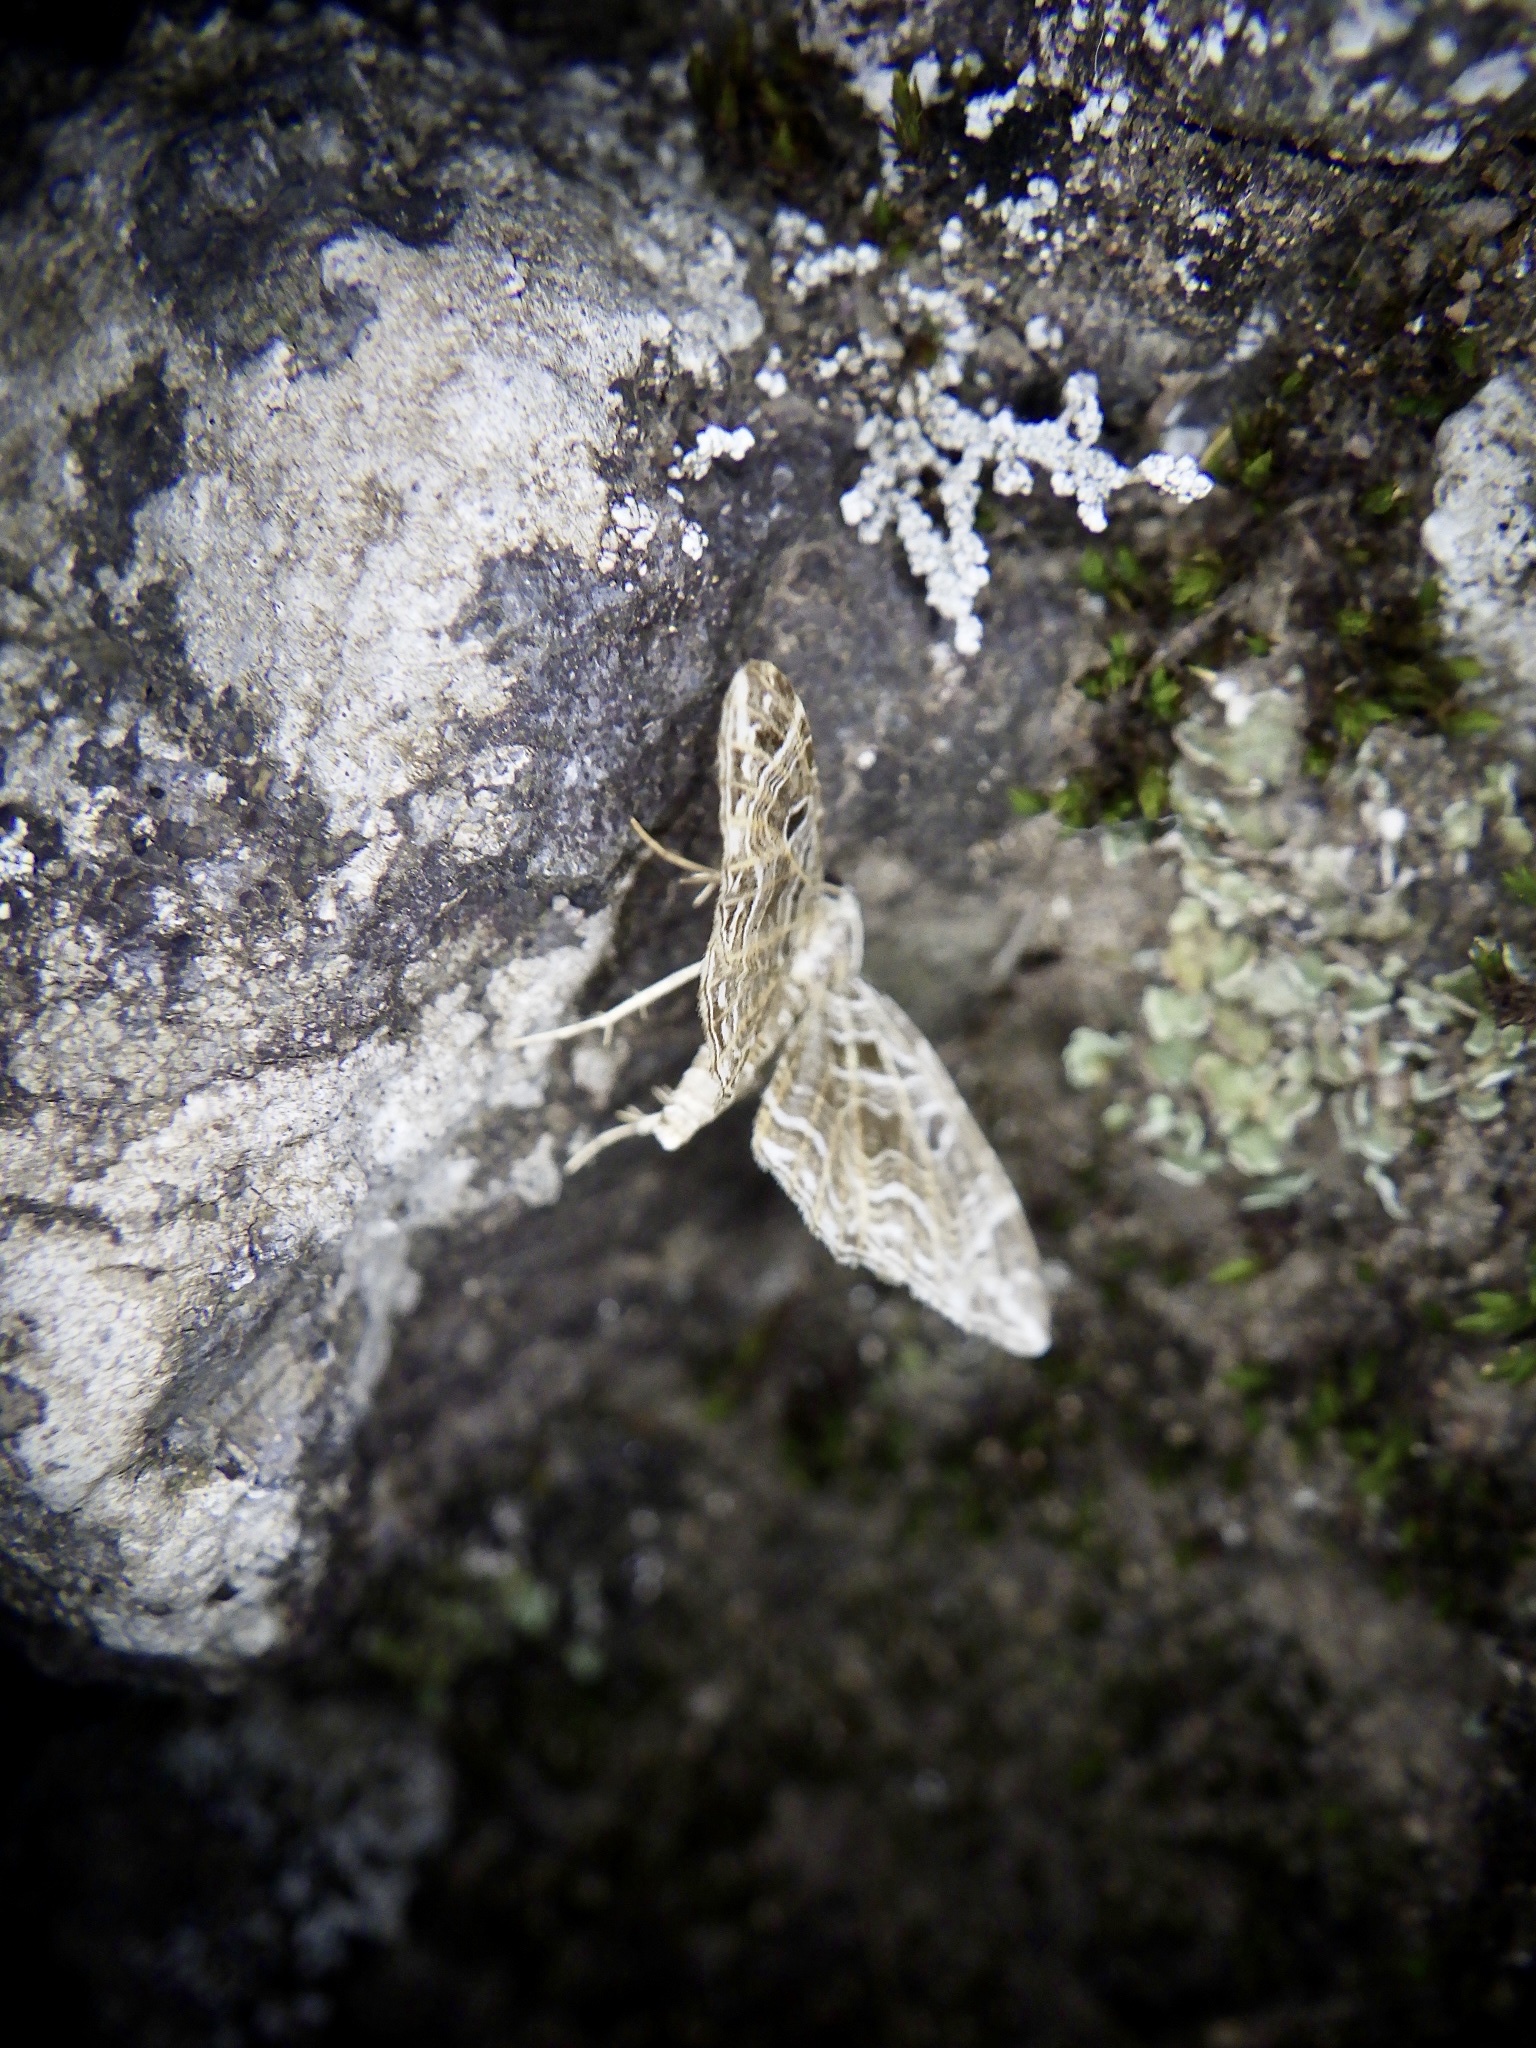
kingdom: Animalia
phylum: Arthropoda
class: Insecta
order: Lepidoptera
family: Geometridae
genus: Lobogonodes
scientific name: Lobogonodes erectaria
